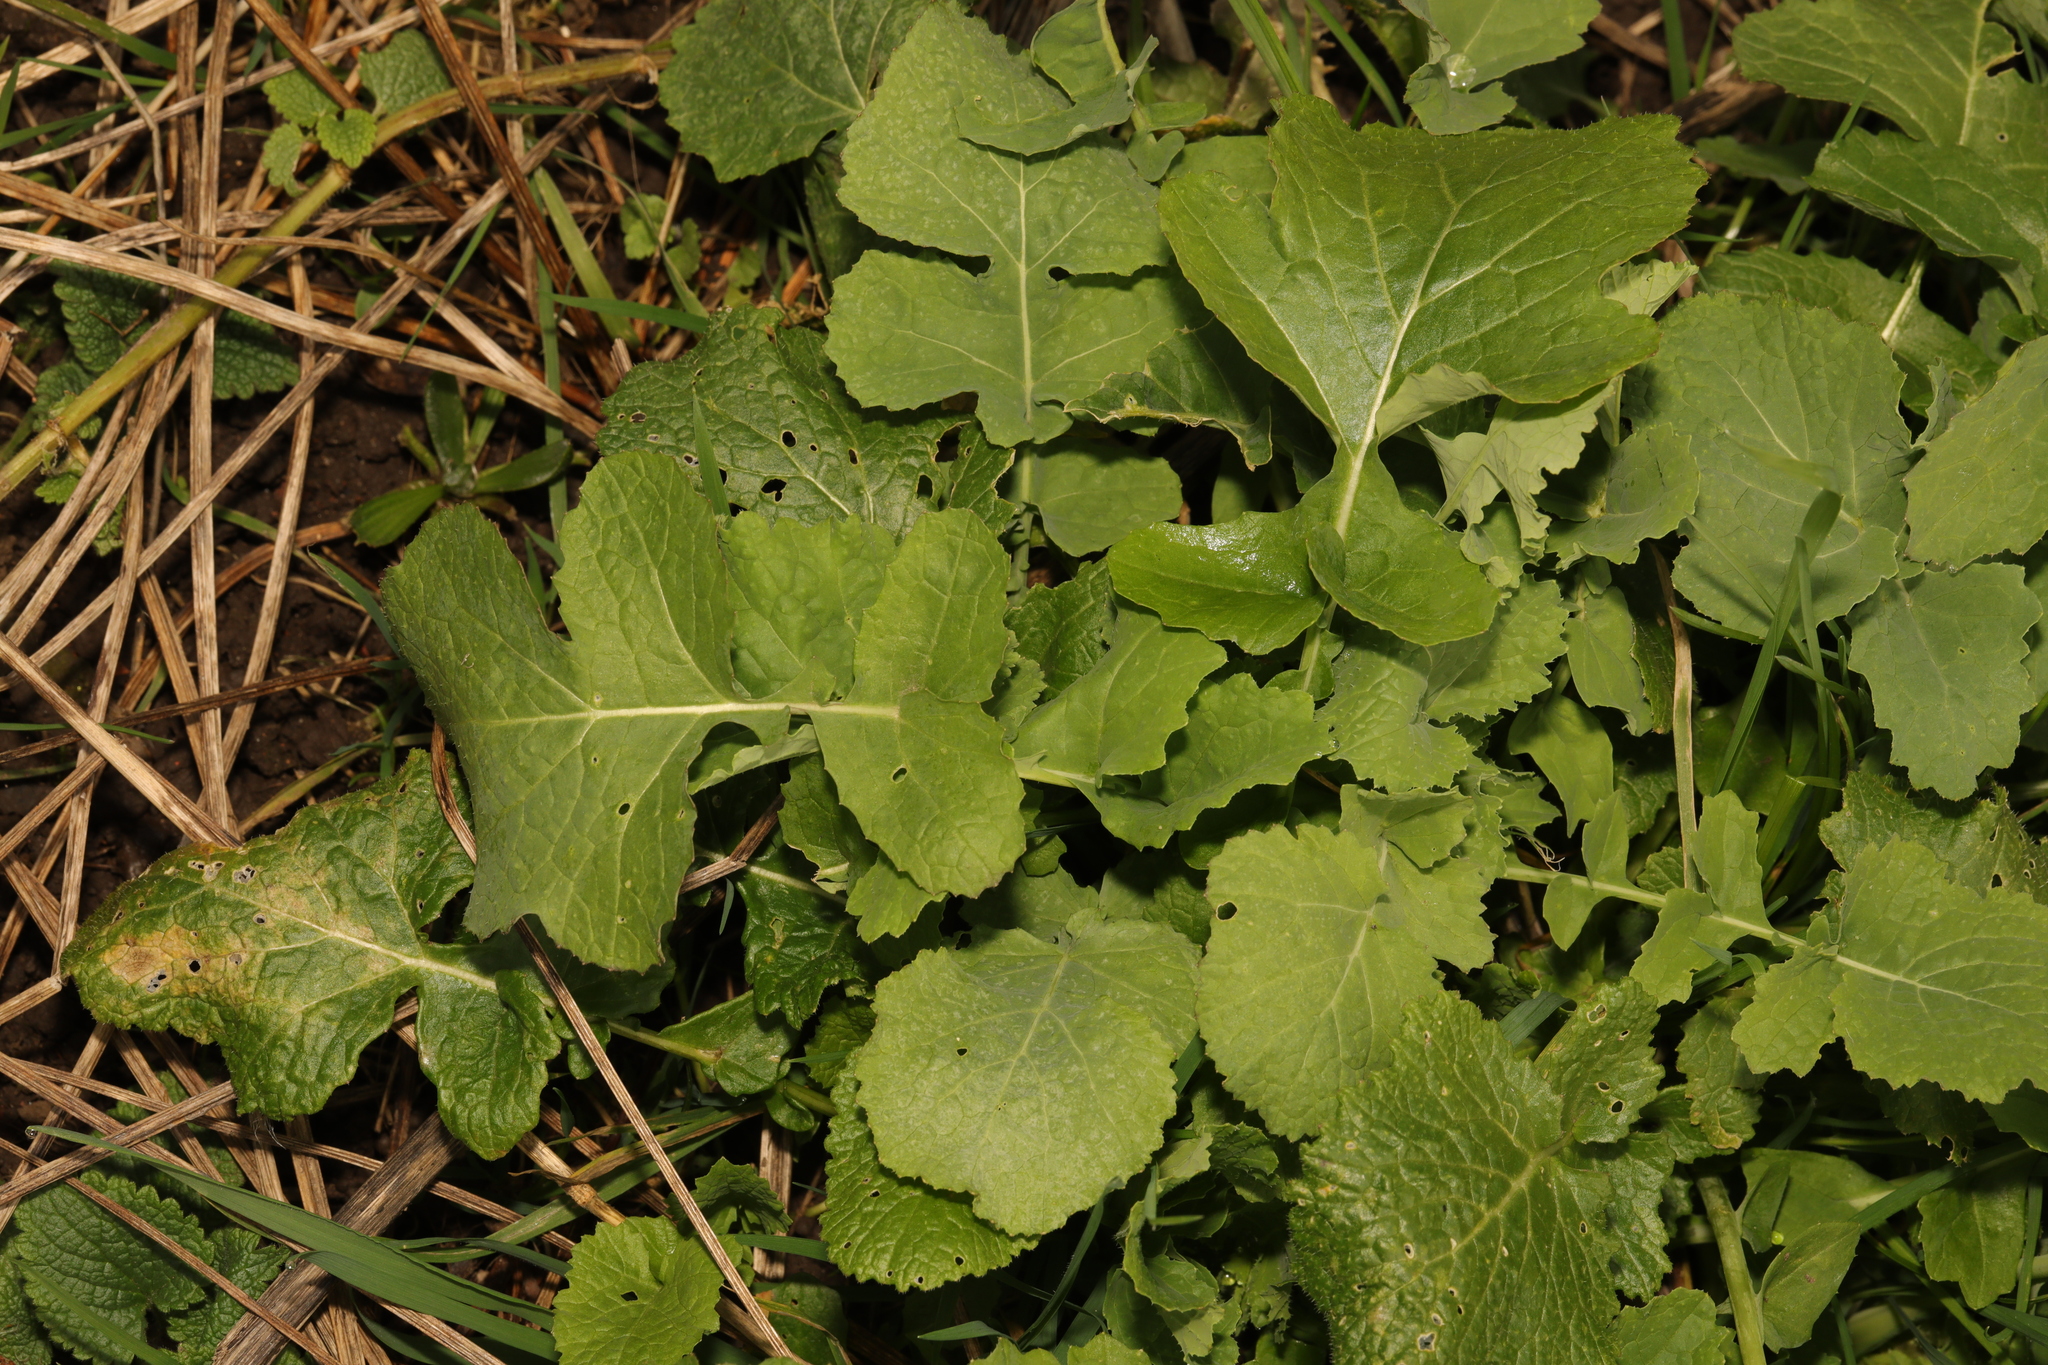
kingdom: Plantae
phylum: Tracheophyta
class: Magnoliopsida
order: Brassicales
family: Brassicaceae
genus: Brassica
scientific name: Brassica rapa
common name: Field mustard
